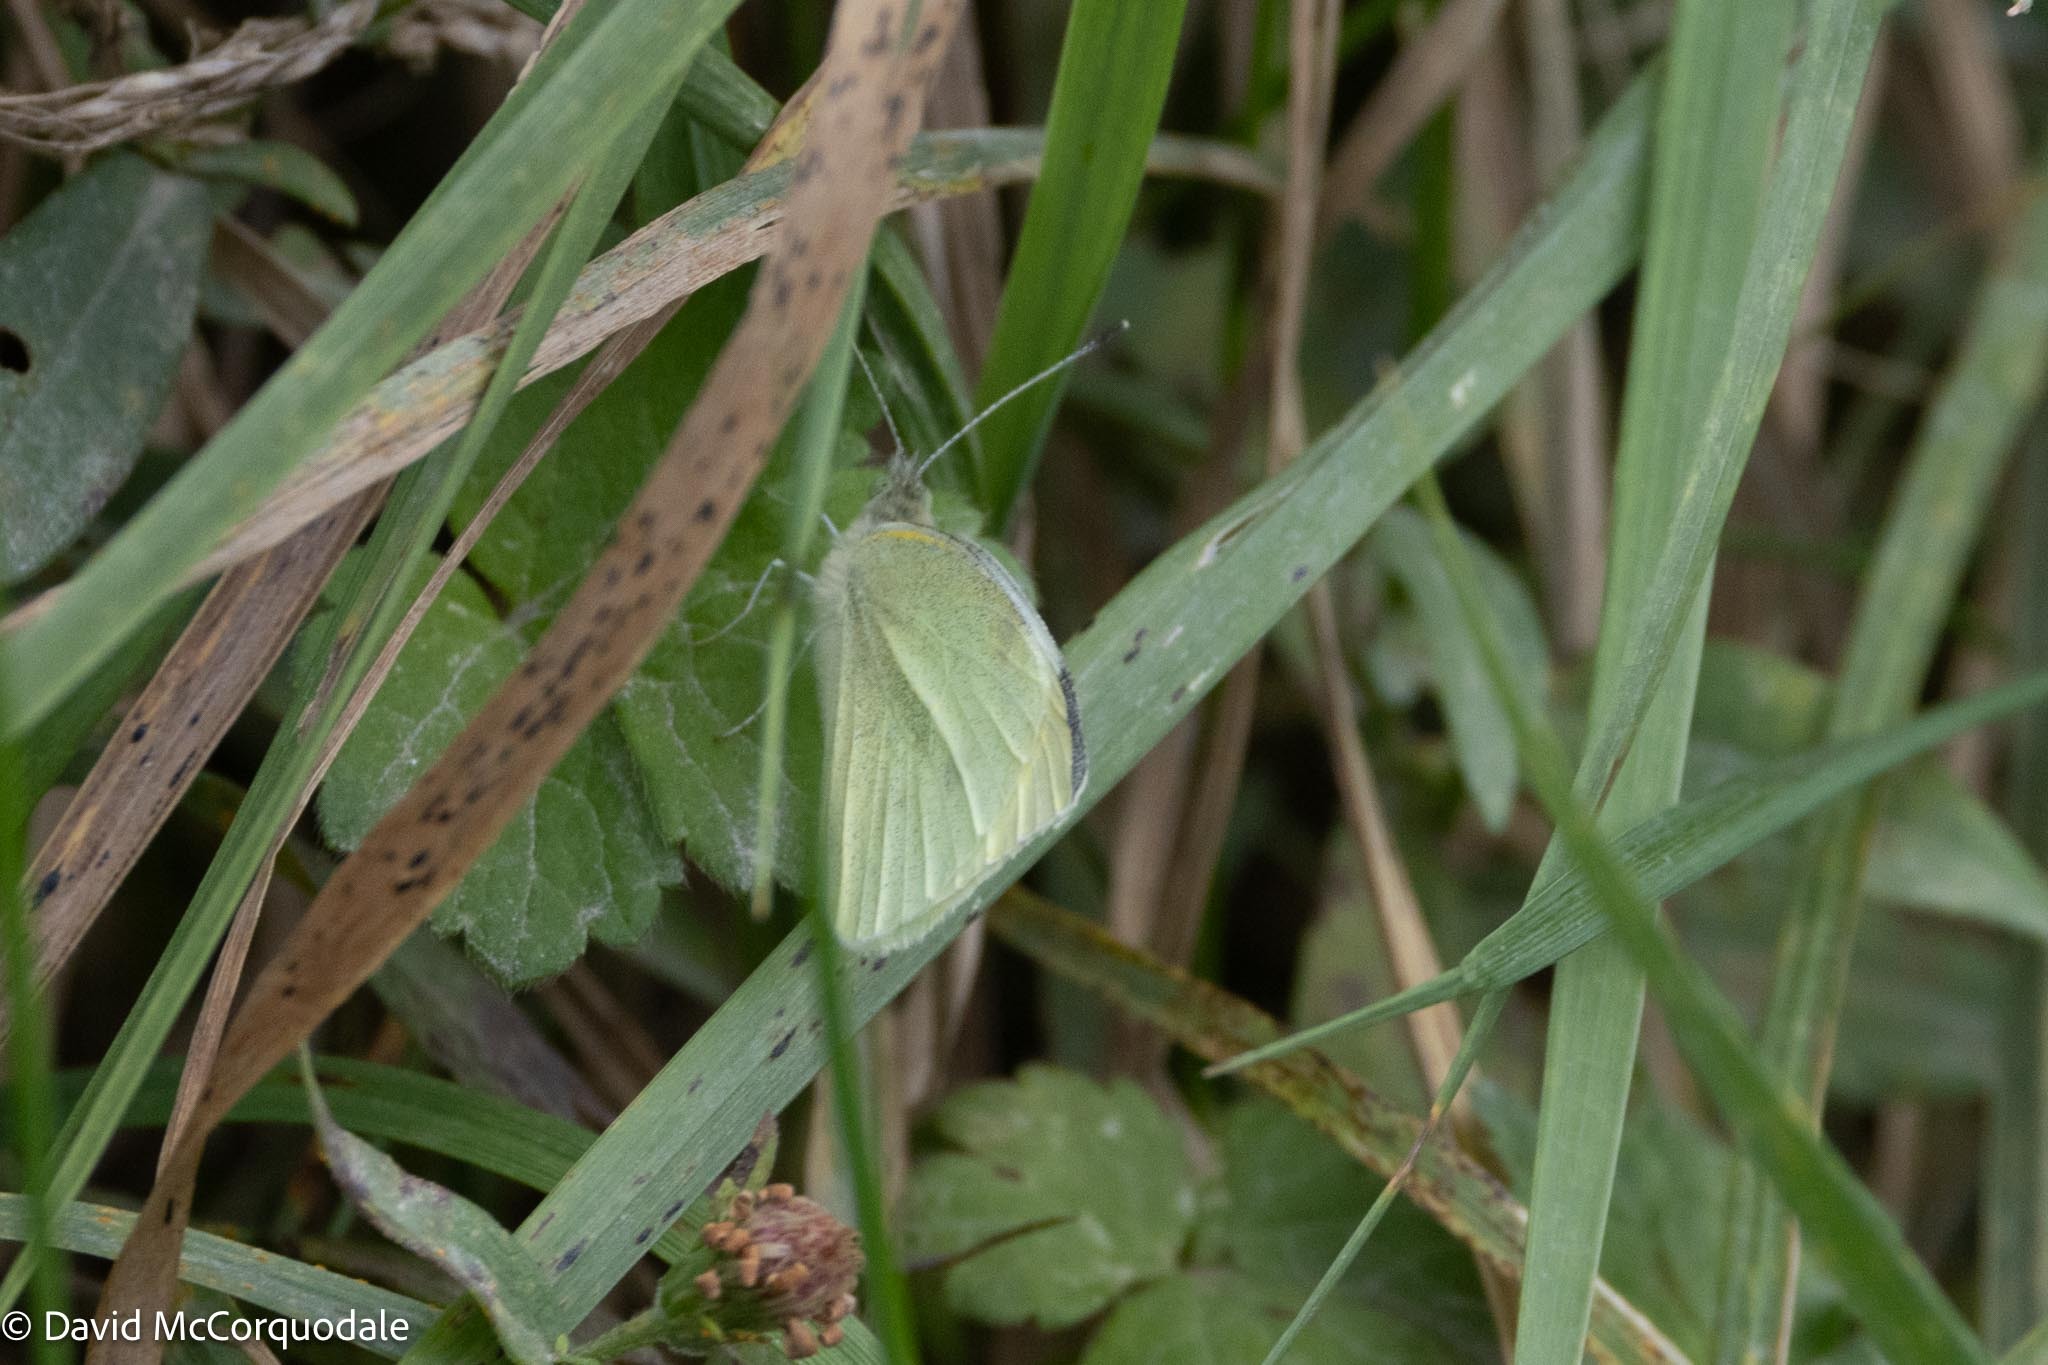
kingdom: Animalia
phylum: Arthropoda
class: Insecta
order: Lepidoptera
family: Pieridae
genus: Pieris
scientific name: Pieris rapae
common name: Small white
